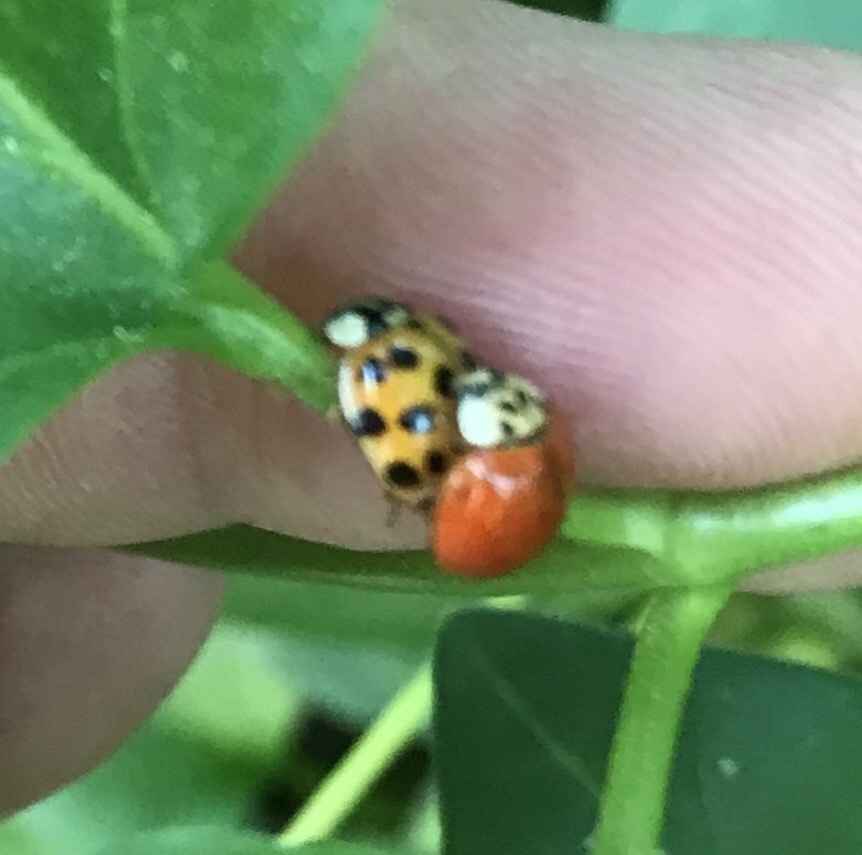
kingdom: Animalia
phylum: Arthropoda
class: Insecta
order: Coleoptera
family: Coccinellidae
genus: Harmonia
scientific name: Harmonia axyridis
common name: Harlequin ladybird
